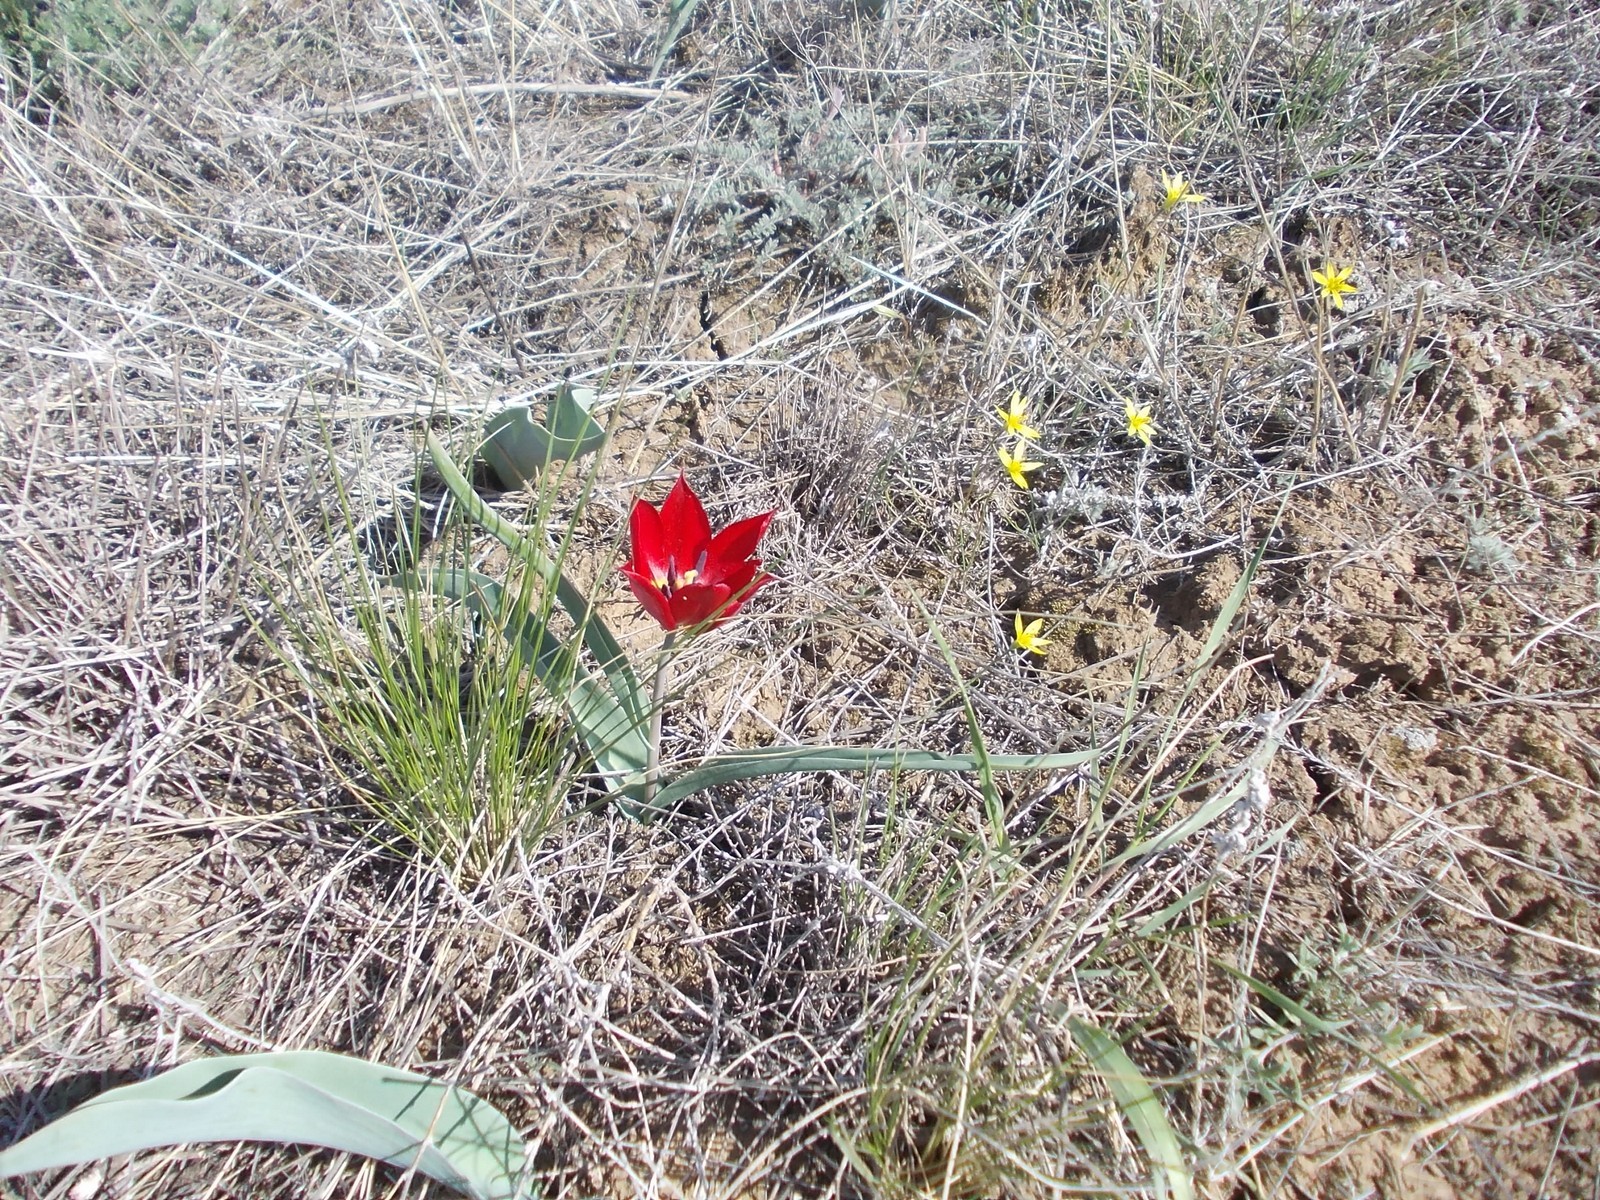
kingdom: Plantae
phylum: Tracheophyta
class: Liliopsida
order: Liliales
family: Liliaceae
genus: Tulipa
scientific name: Tulipa suaveolens
